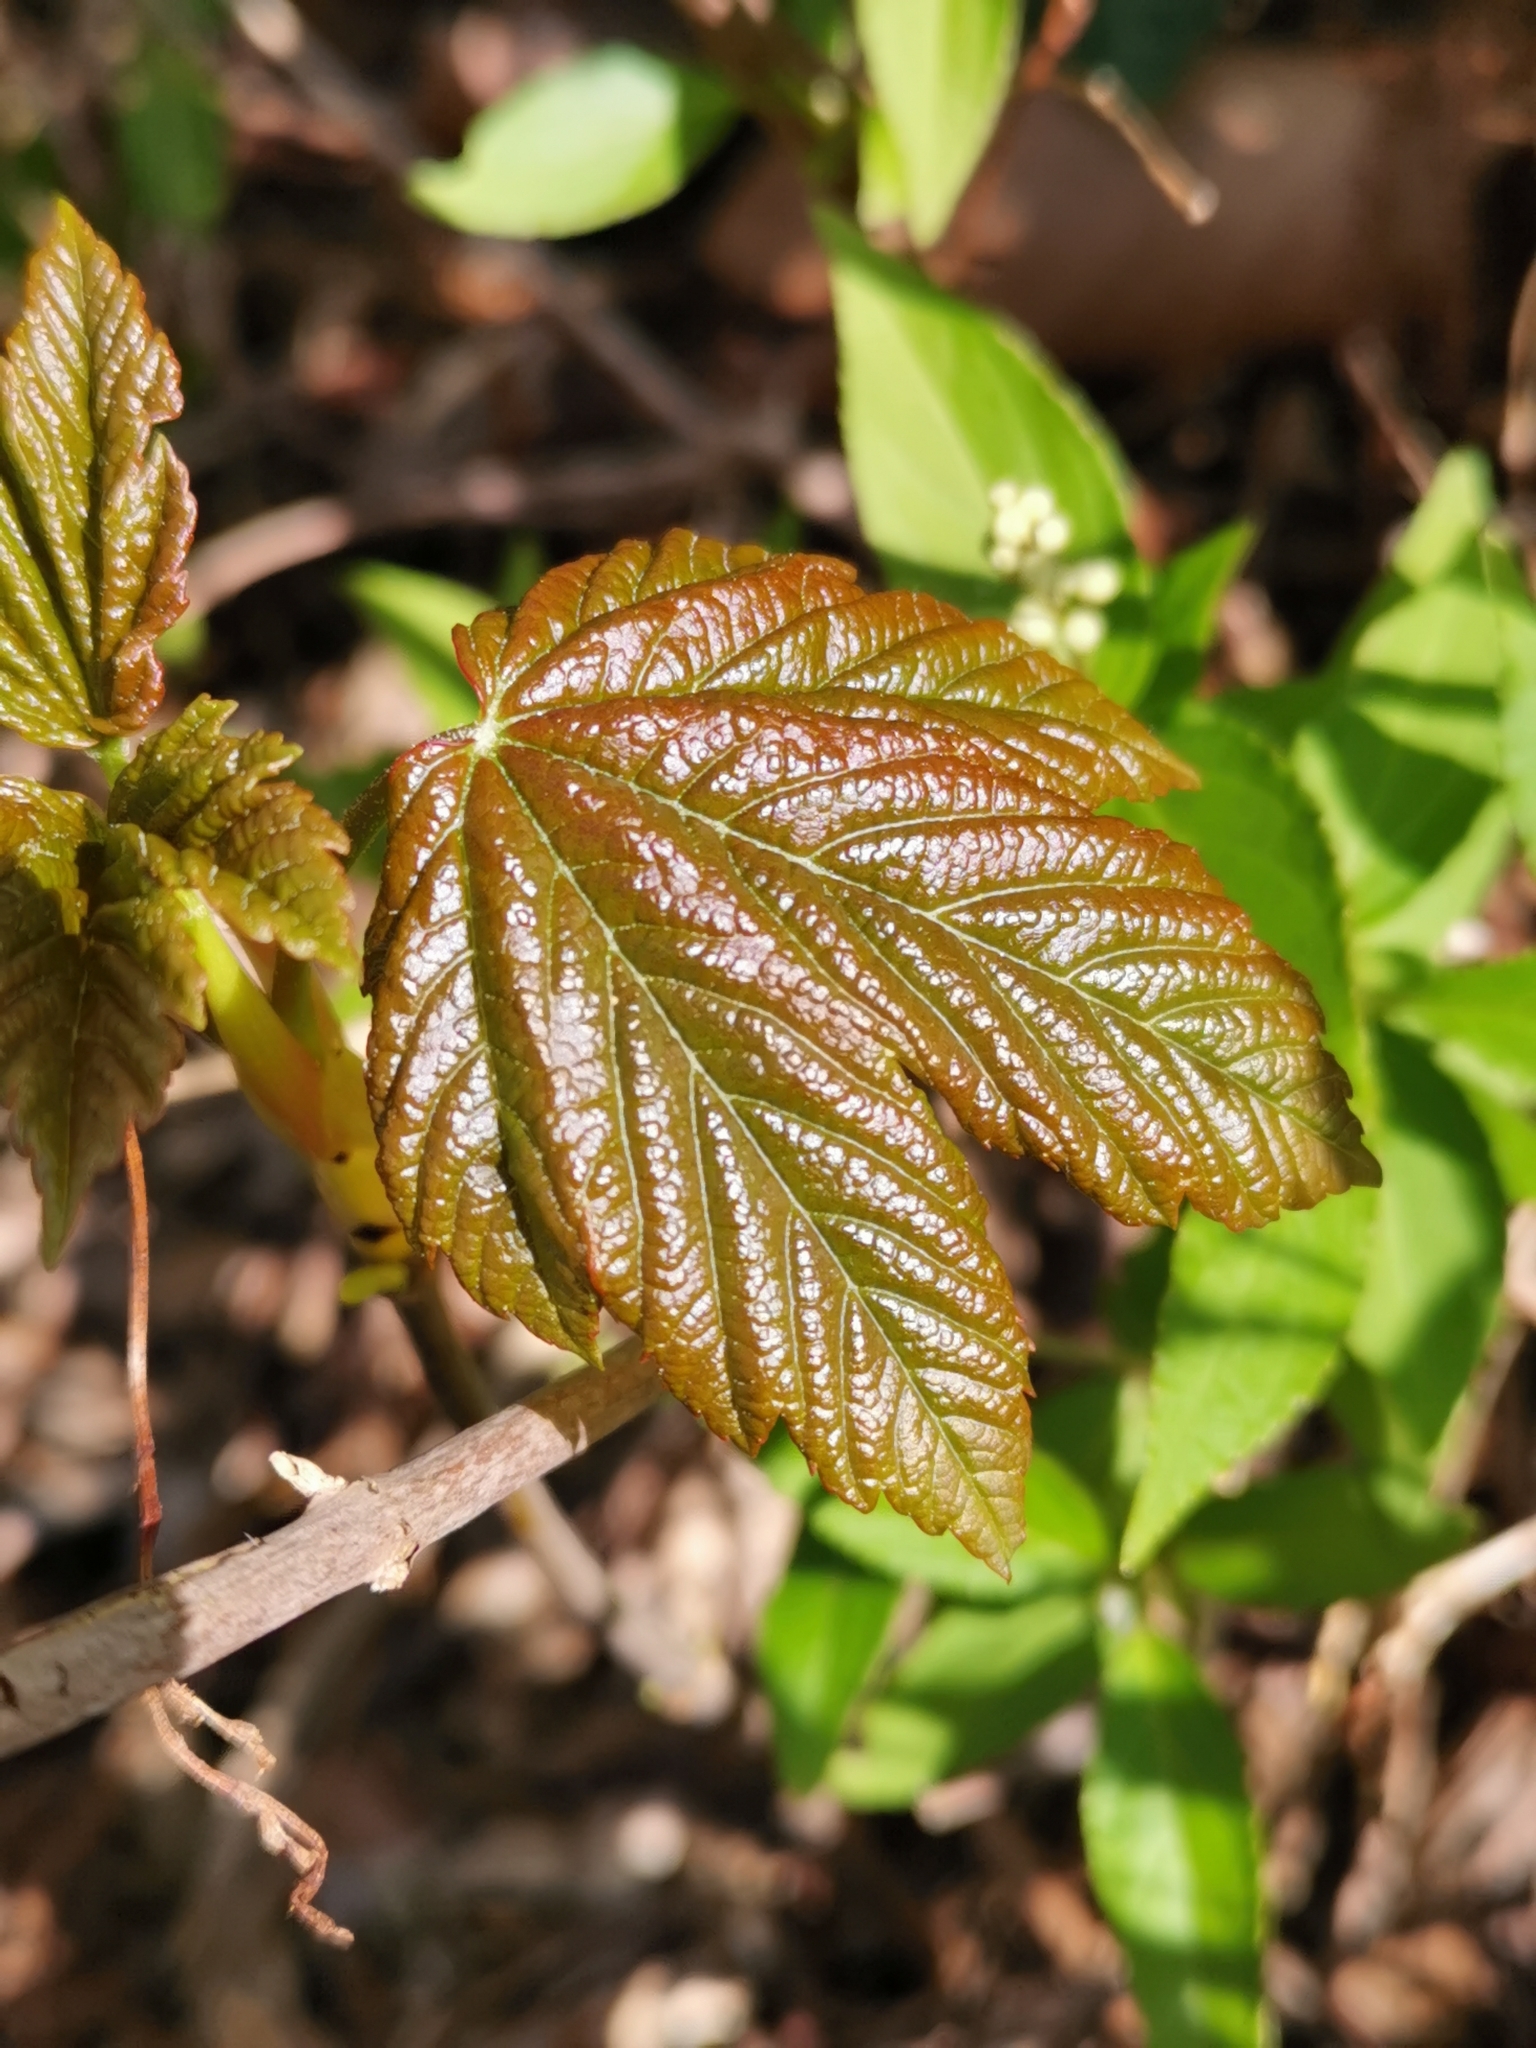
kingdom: Plantae
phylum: Tracheophyta
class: Magnoliopsida
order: Sapindales
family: Sapindaceae
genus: Acer
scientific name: Acer pseudoplatanus
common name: Sycamore
